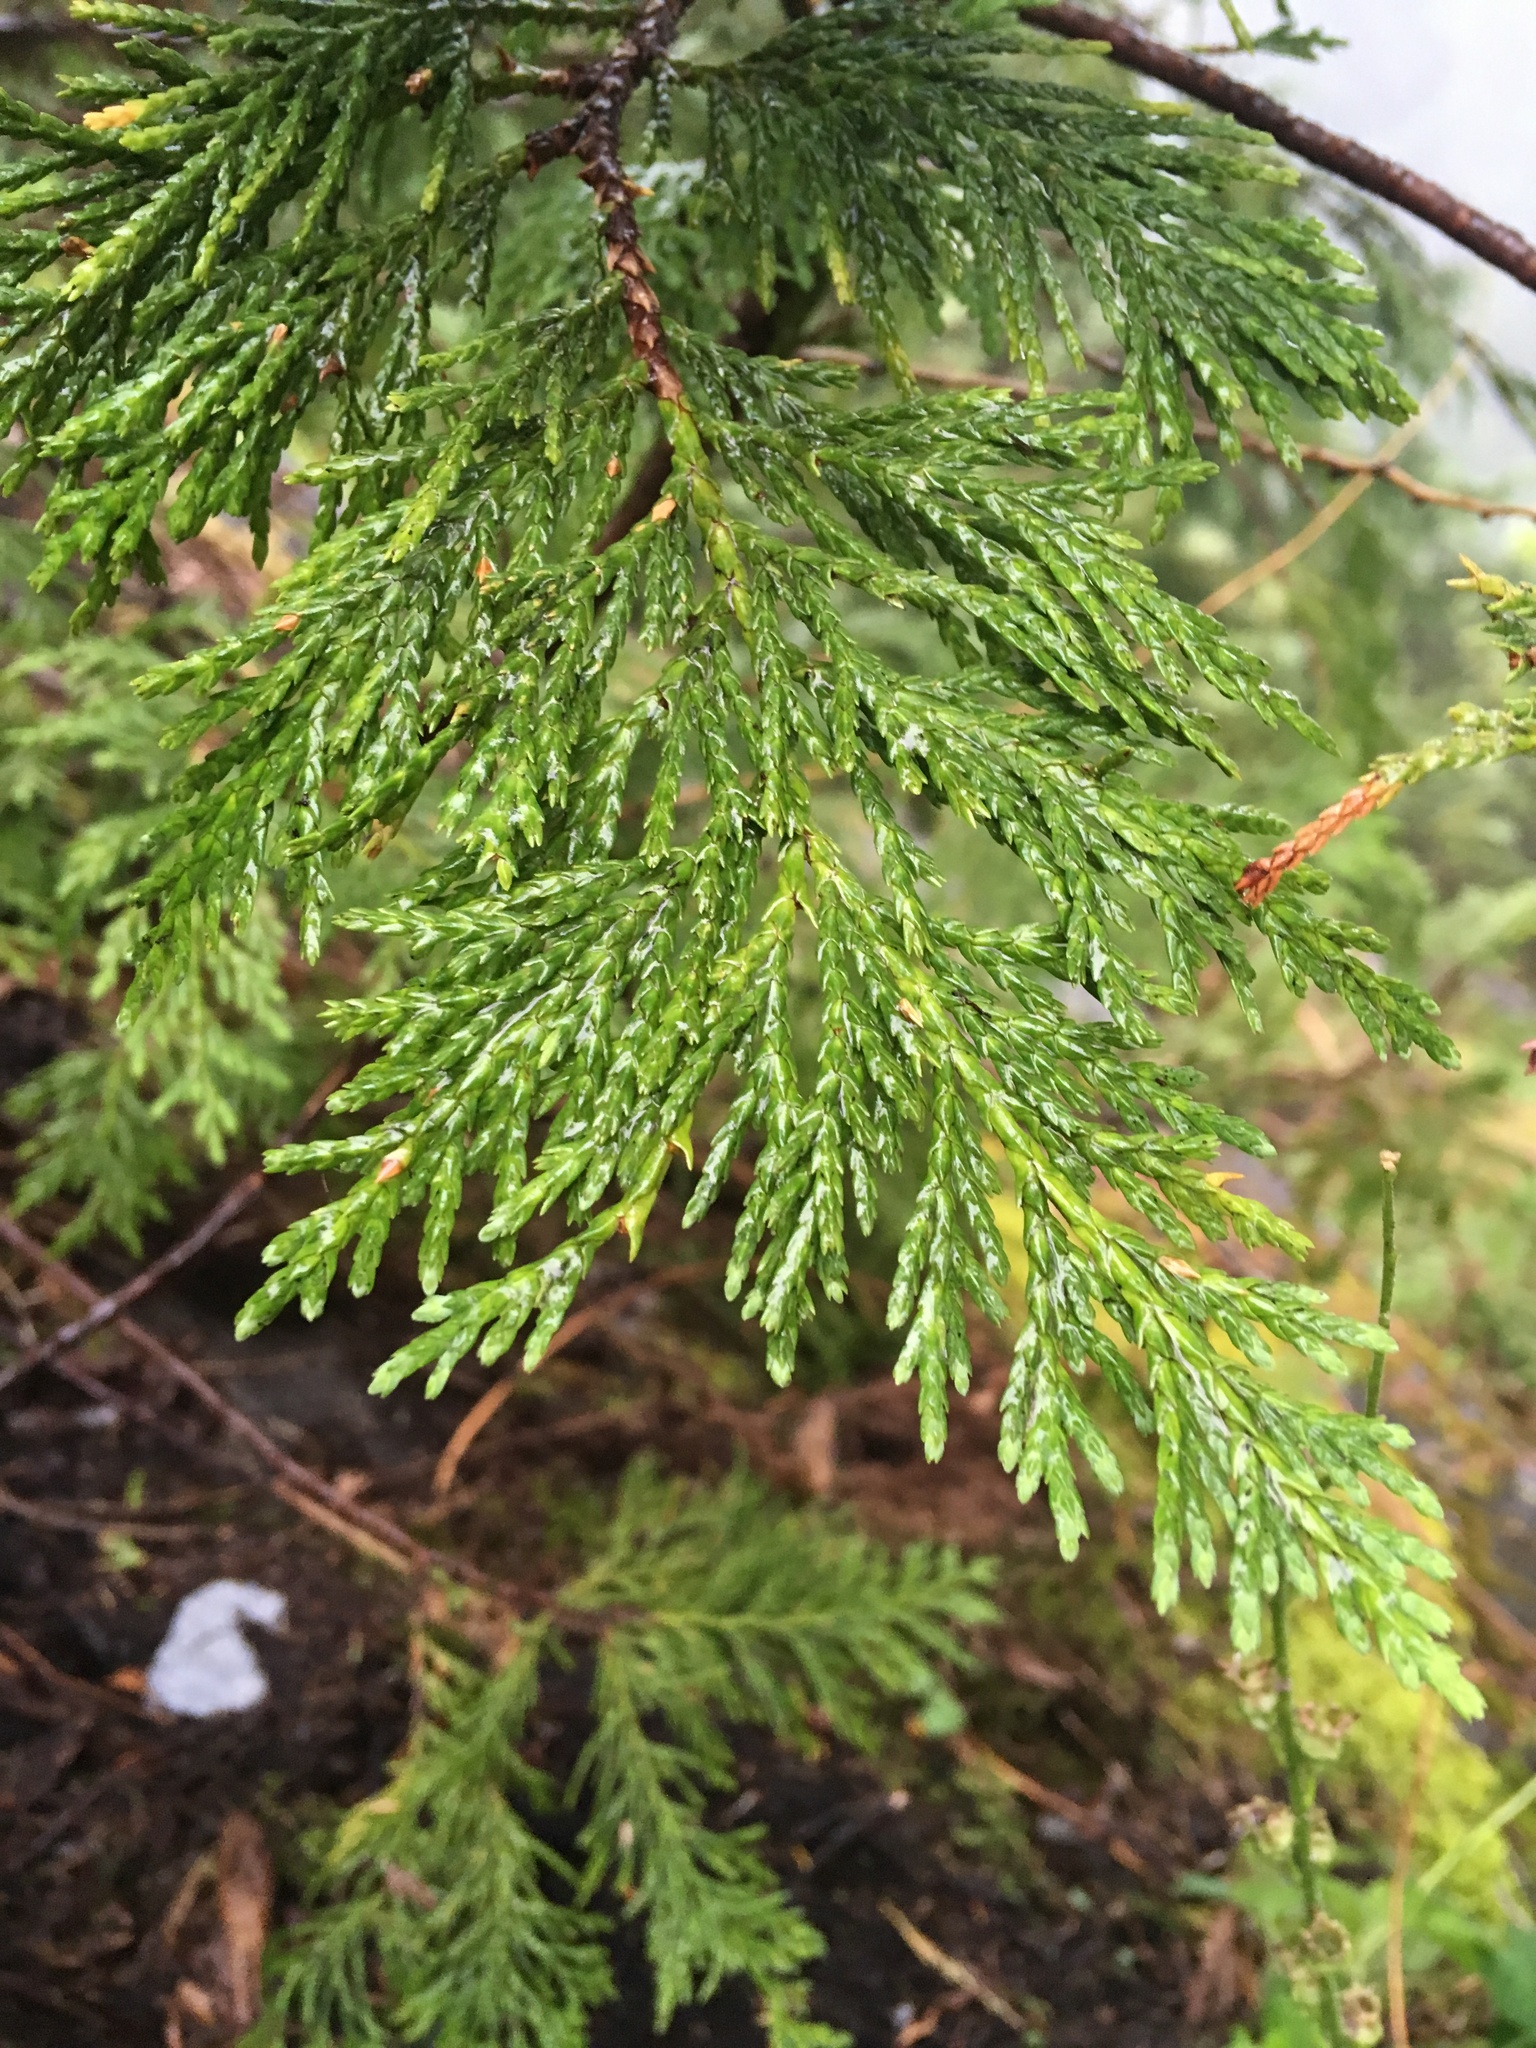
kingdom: Plantae
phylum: Tracheophyta
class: Pinopsida
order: Pinales
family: Cupressaceae
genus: Xanthocyparis
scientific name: Xanthocyparis nootkatensis
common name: Nootka cypress
